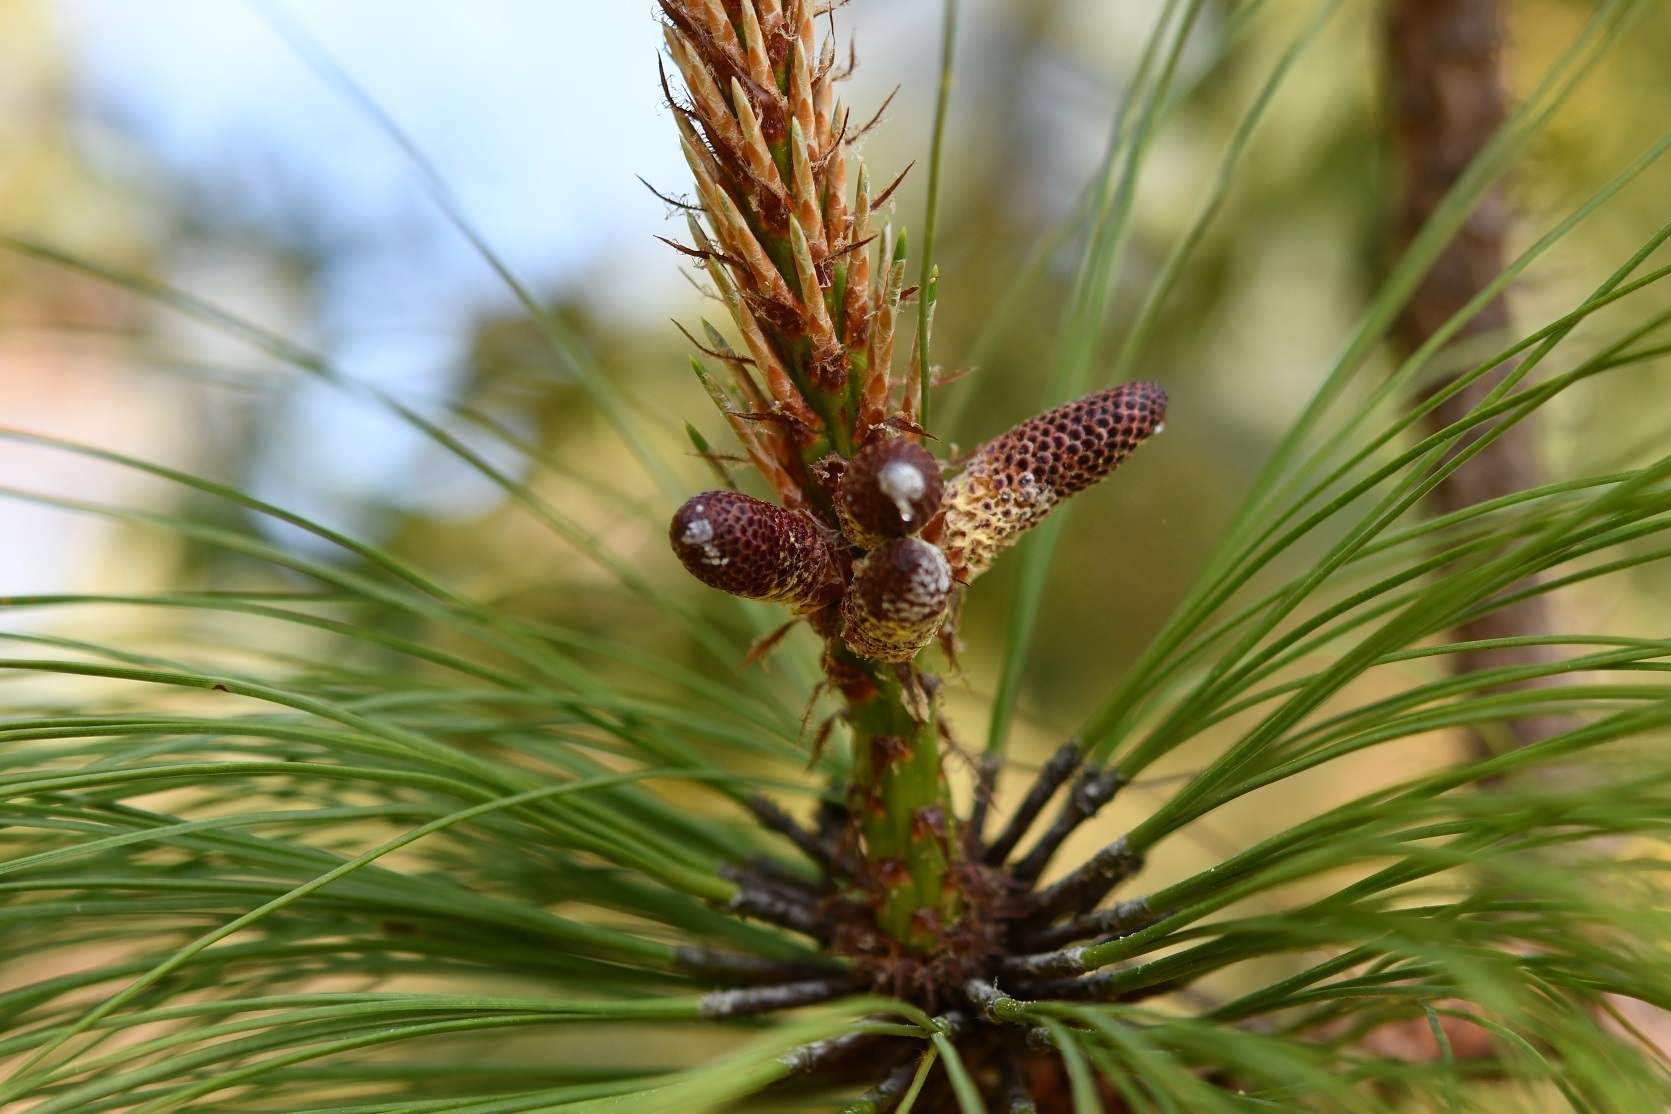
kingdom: Plantae
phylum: Tracheophyta
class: Pinopsida
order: Pinales
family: Pinaceae
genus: Pinus
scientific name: Pinus devoniana
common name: Michoacan pine
